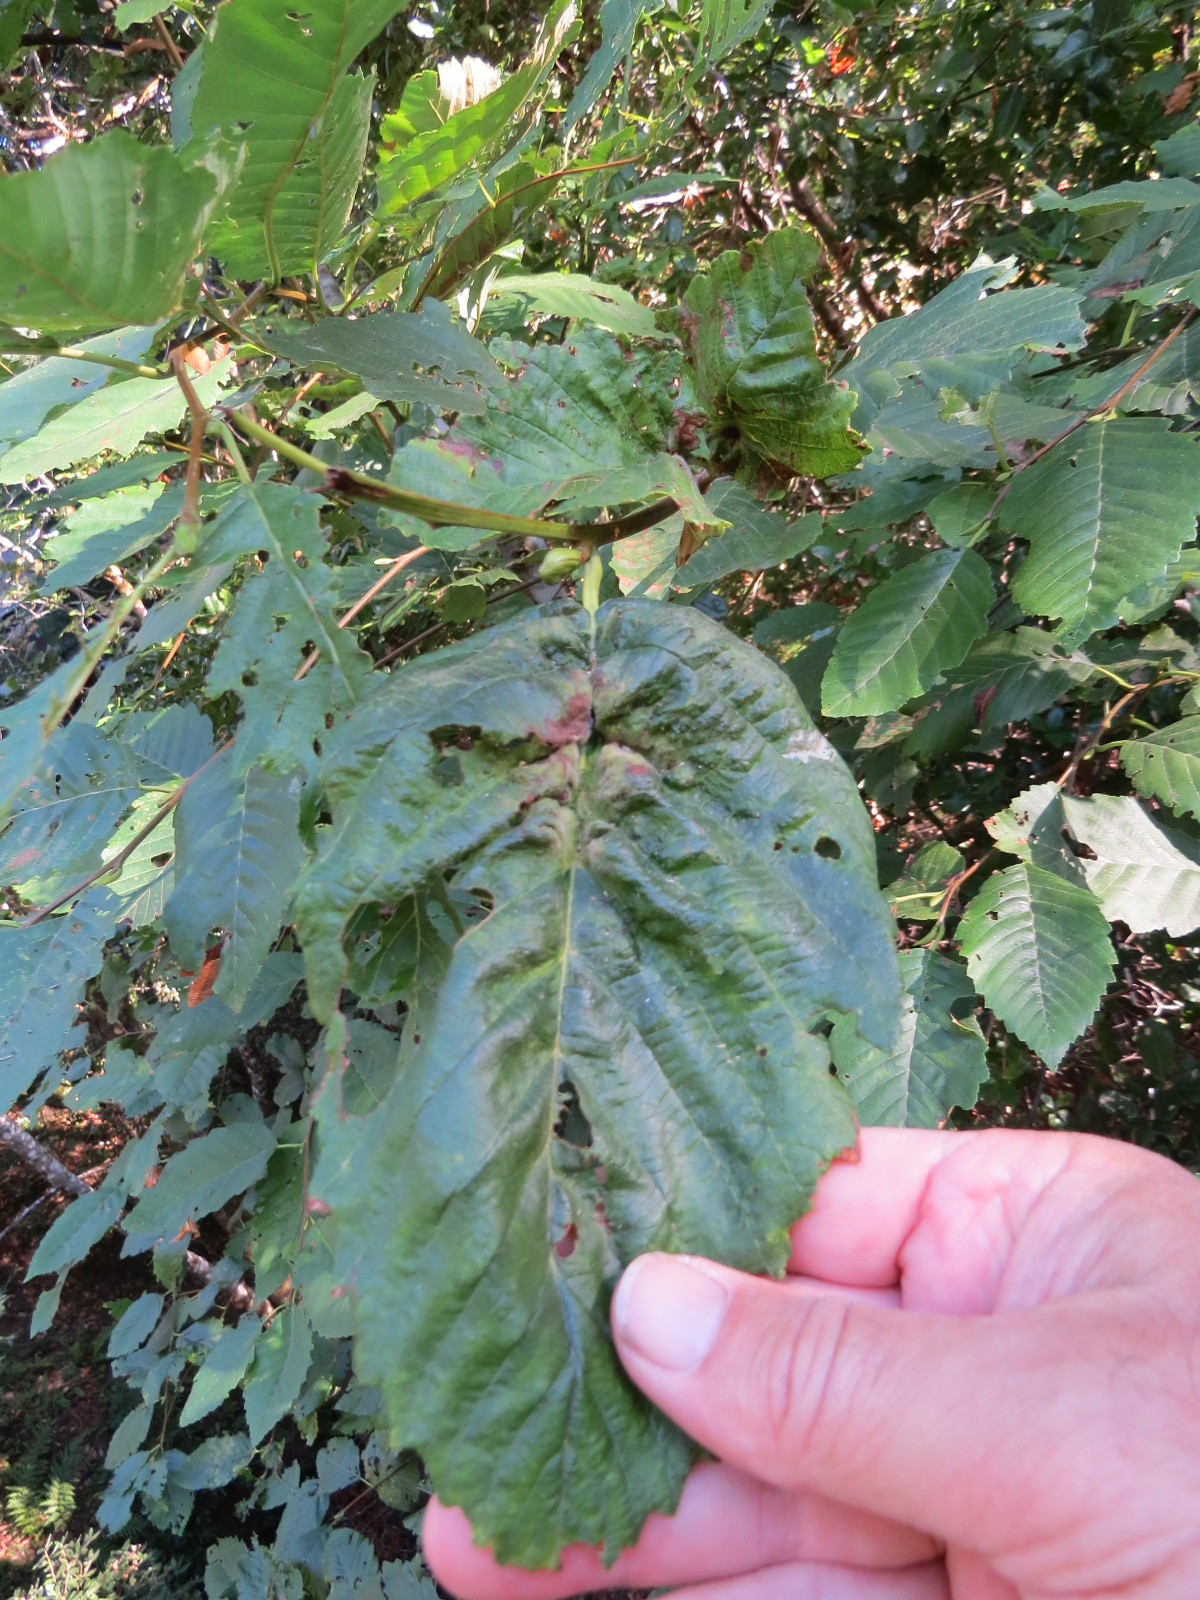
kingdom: Animalia
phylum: Arthropoda
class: Insecta
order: Diptera
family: Cecidomyiidae
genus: Dasineura
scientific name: Dasineura
